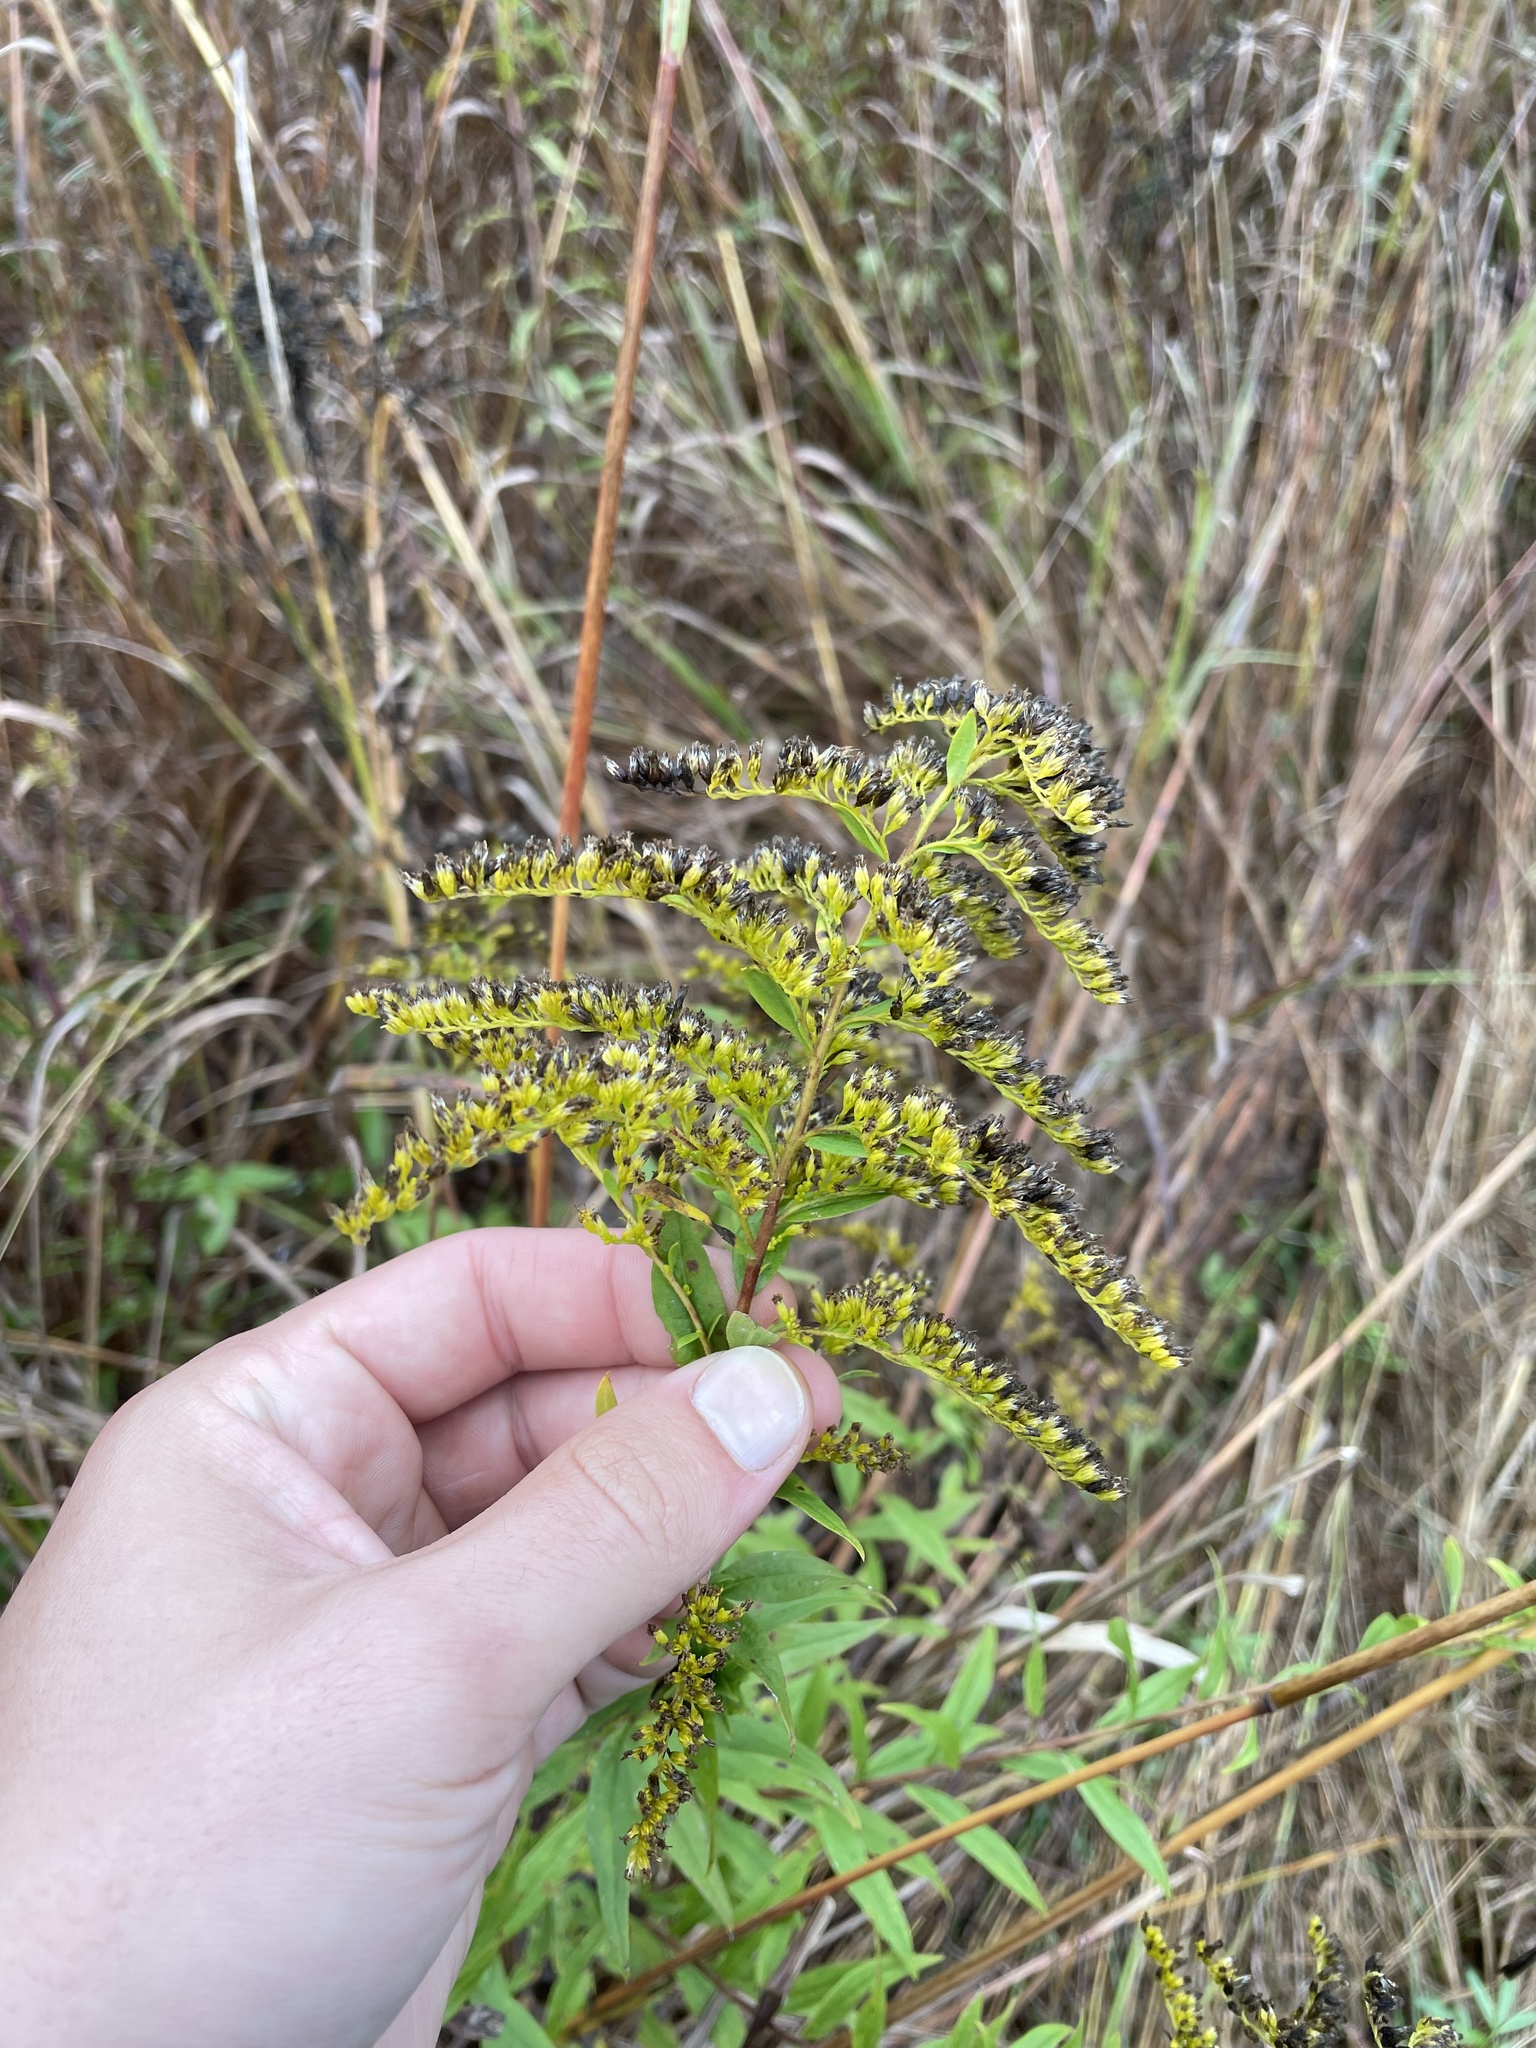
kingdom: Plantae
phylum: Tracheophyta
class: Magnoliopsida
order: Asterales
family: Asteraceae
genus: Solidago
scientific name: Solidago canadensis
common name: Canada goldenrod
